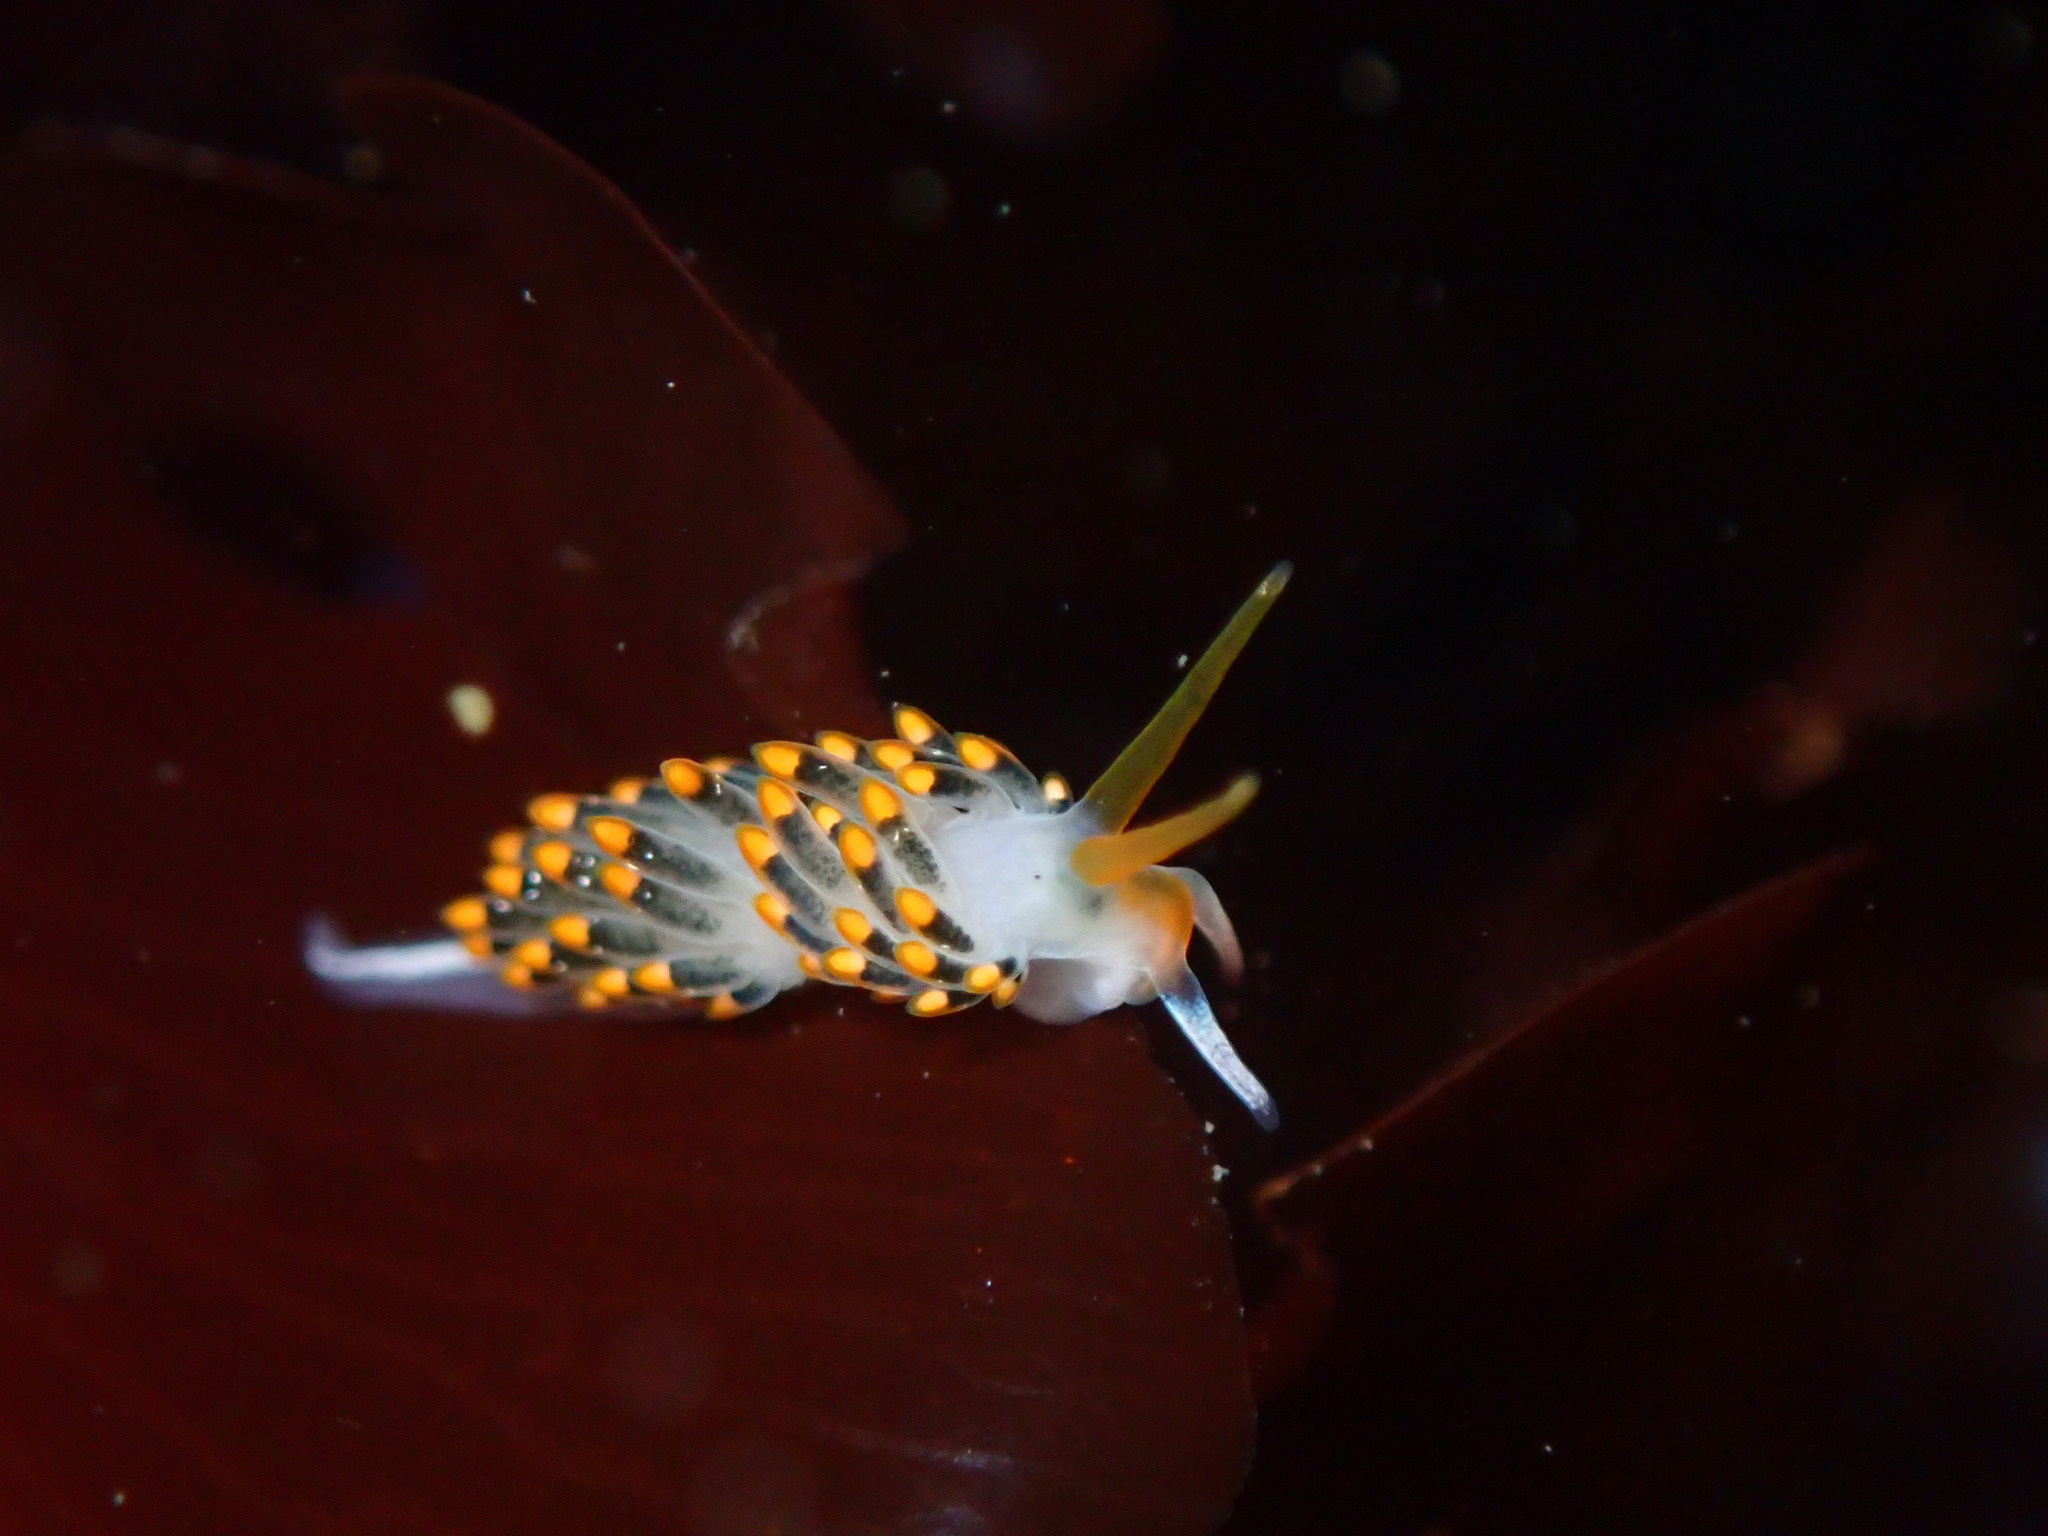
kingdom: Animalia
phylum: Mollusca
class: Gastropoda
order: Nudibranchia
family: Trinchesiidae
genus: Diaphoreolis
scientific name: Diaphoreolis lagunae
